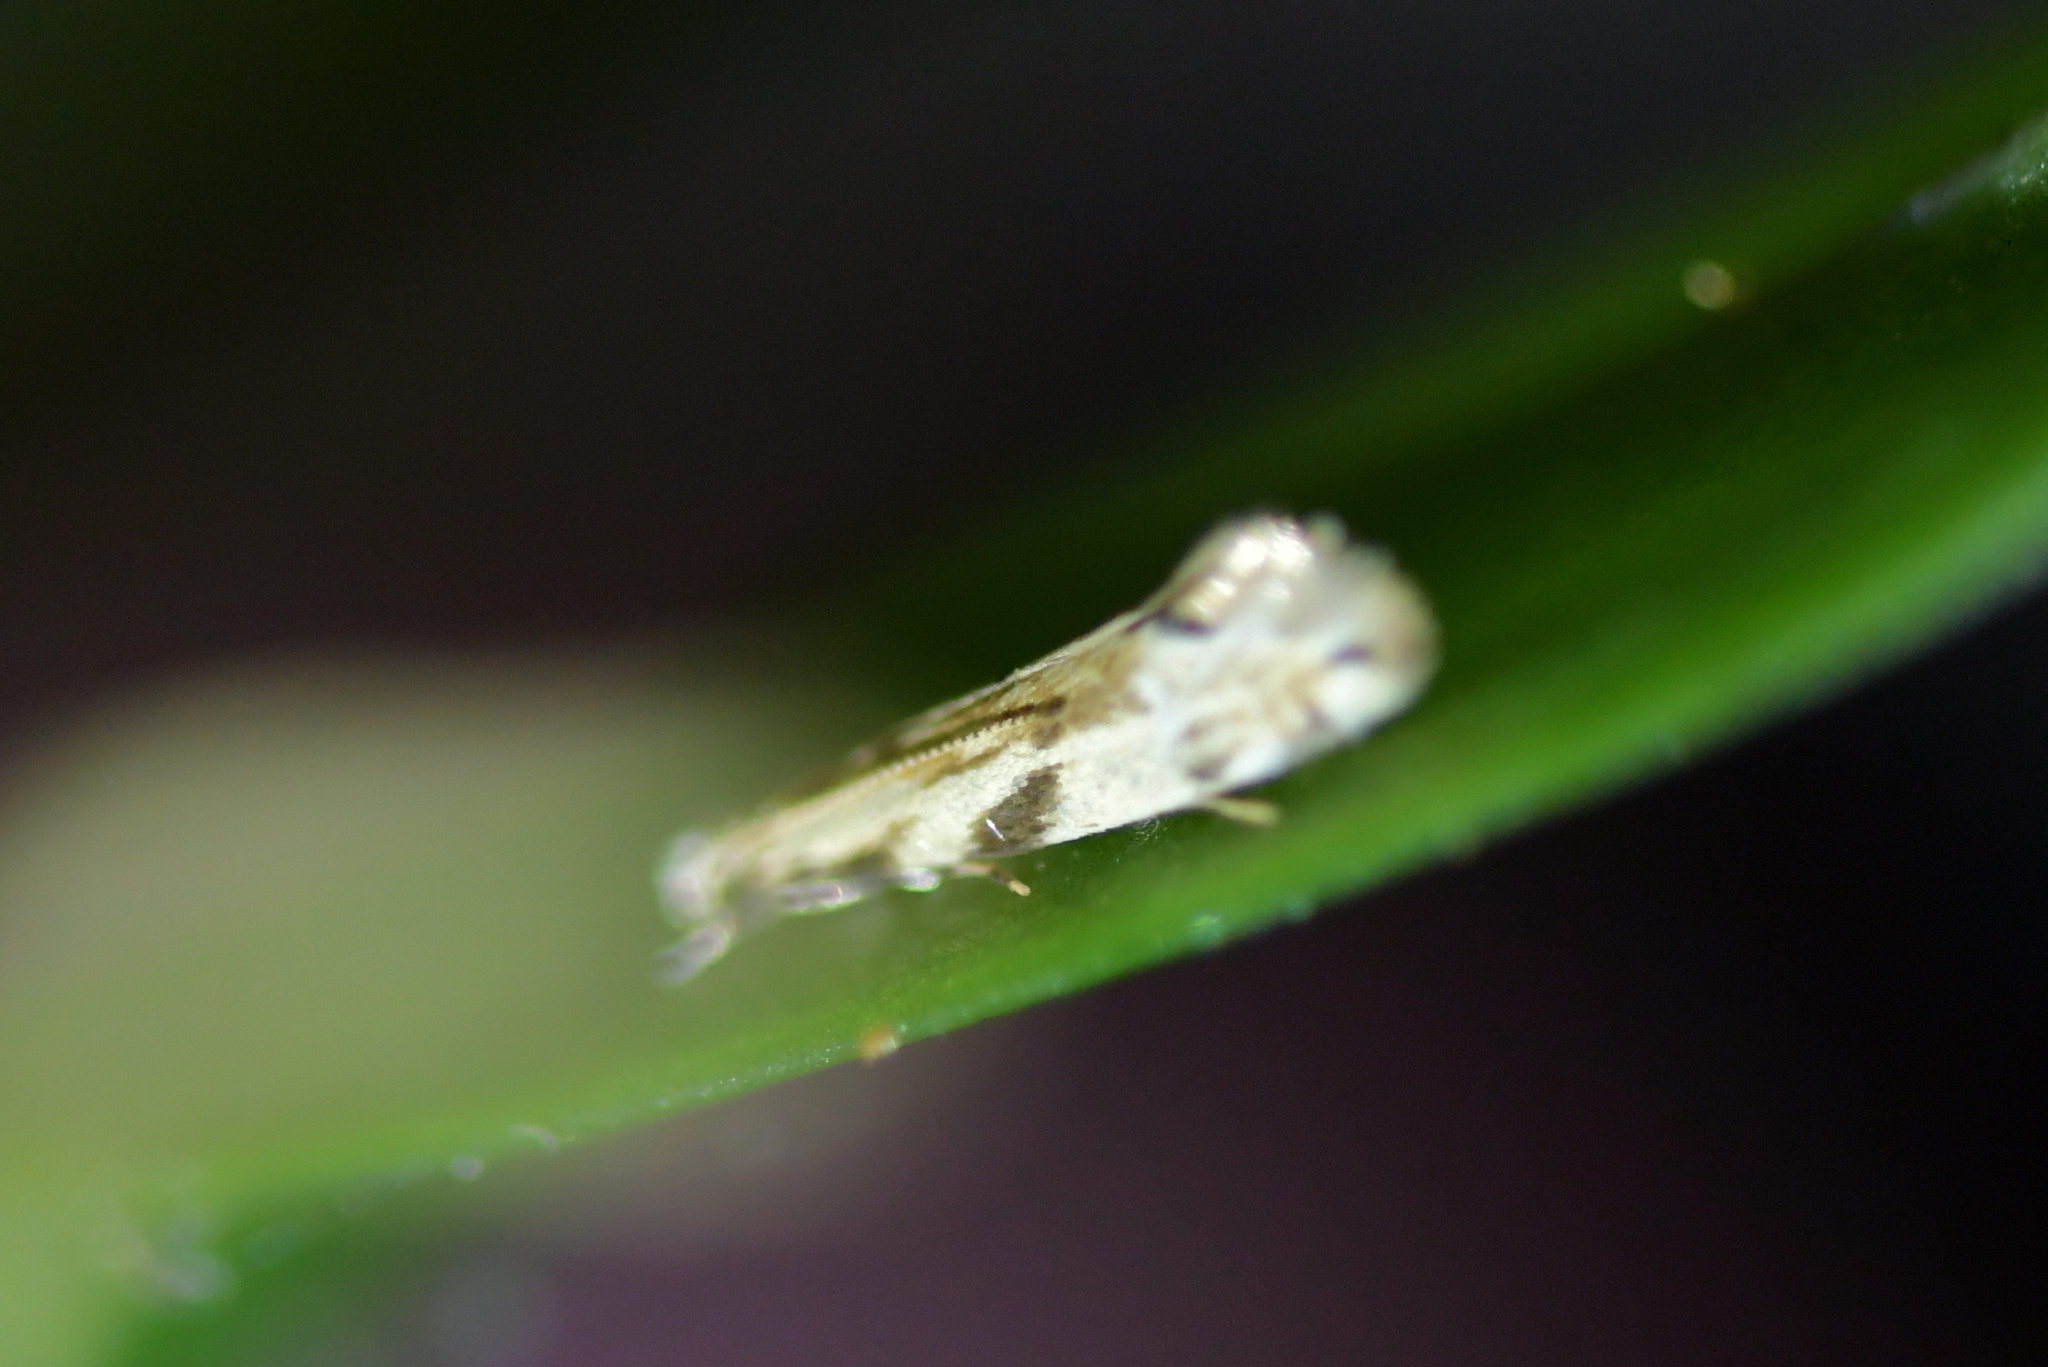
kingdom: Animalia
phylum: Arthropoda
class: Insecta
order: Lepidoptera
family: Dryadaulidae
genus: Dryadaula
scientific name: Dryadaula myrrhina
